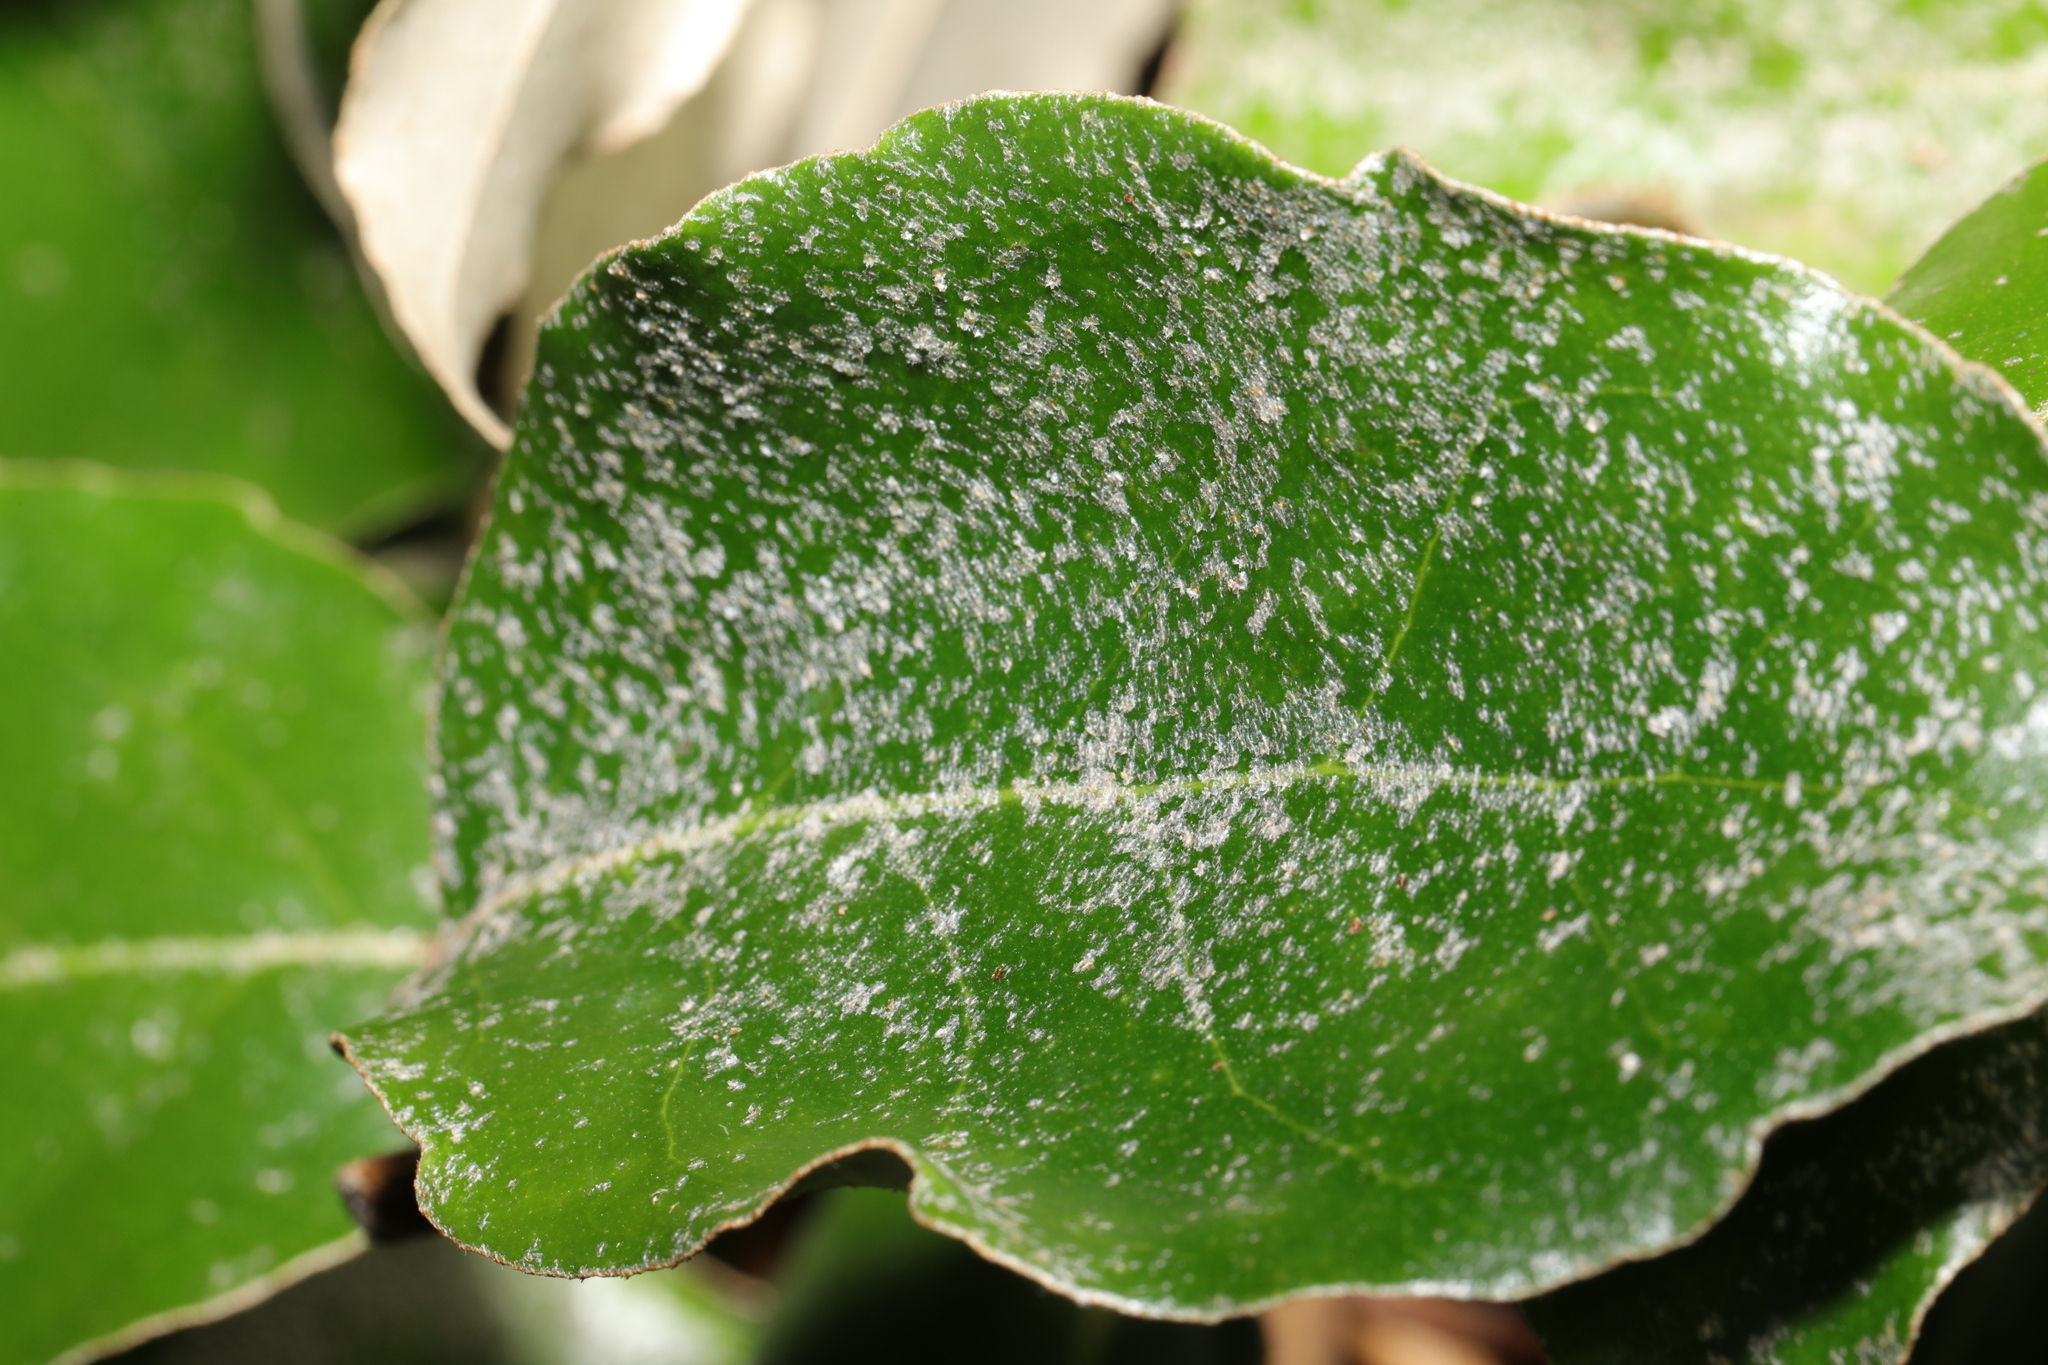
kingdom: Plantae
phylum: Tracheophyta
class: Magnoliopsida
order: Rosales
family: Elaeagnaceae
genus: Elaeagnus
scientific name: Elaeagnus
